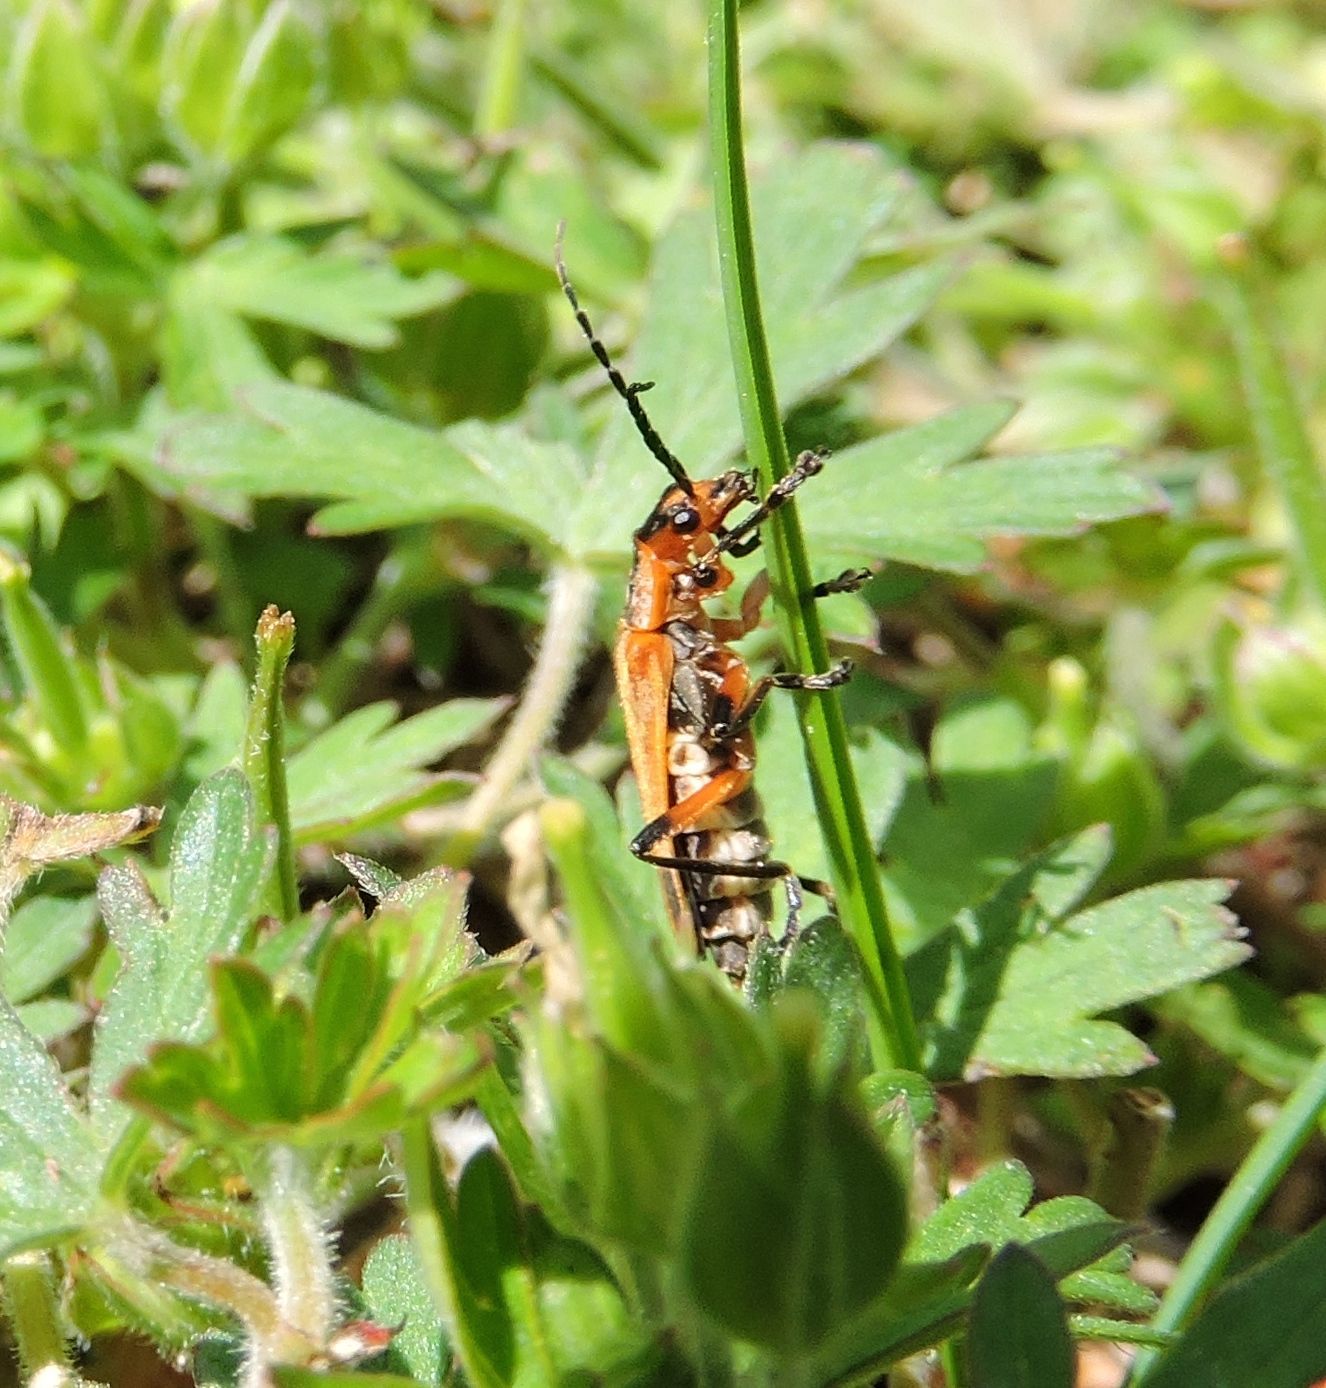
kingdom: Animalia
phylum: Arthropoda
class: Insecta
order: Coleoptera
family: Cantharidae
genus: Chauliognathus
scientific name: Chauliognathus marginatus
